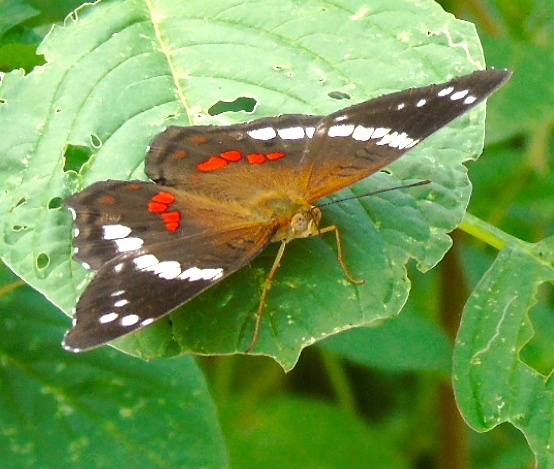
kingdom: Animalia
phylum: Arthropoda
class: Insecta
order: Lepidoptera
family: Nymphalidae
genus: Anartia
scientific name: Anartia fatima
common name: Banded peacock
